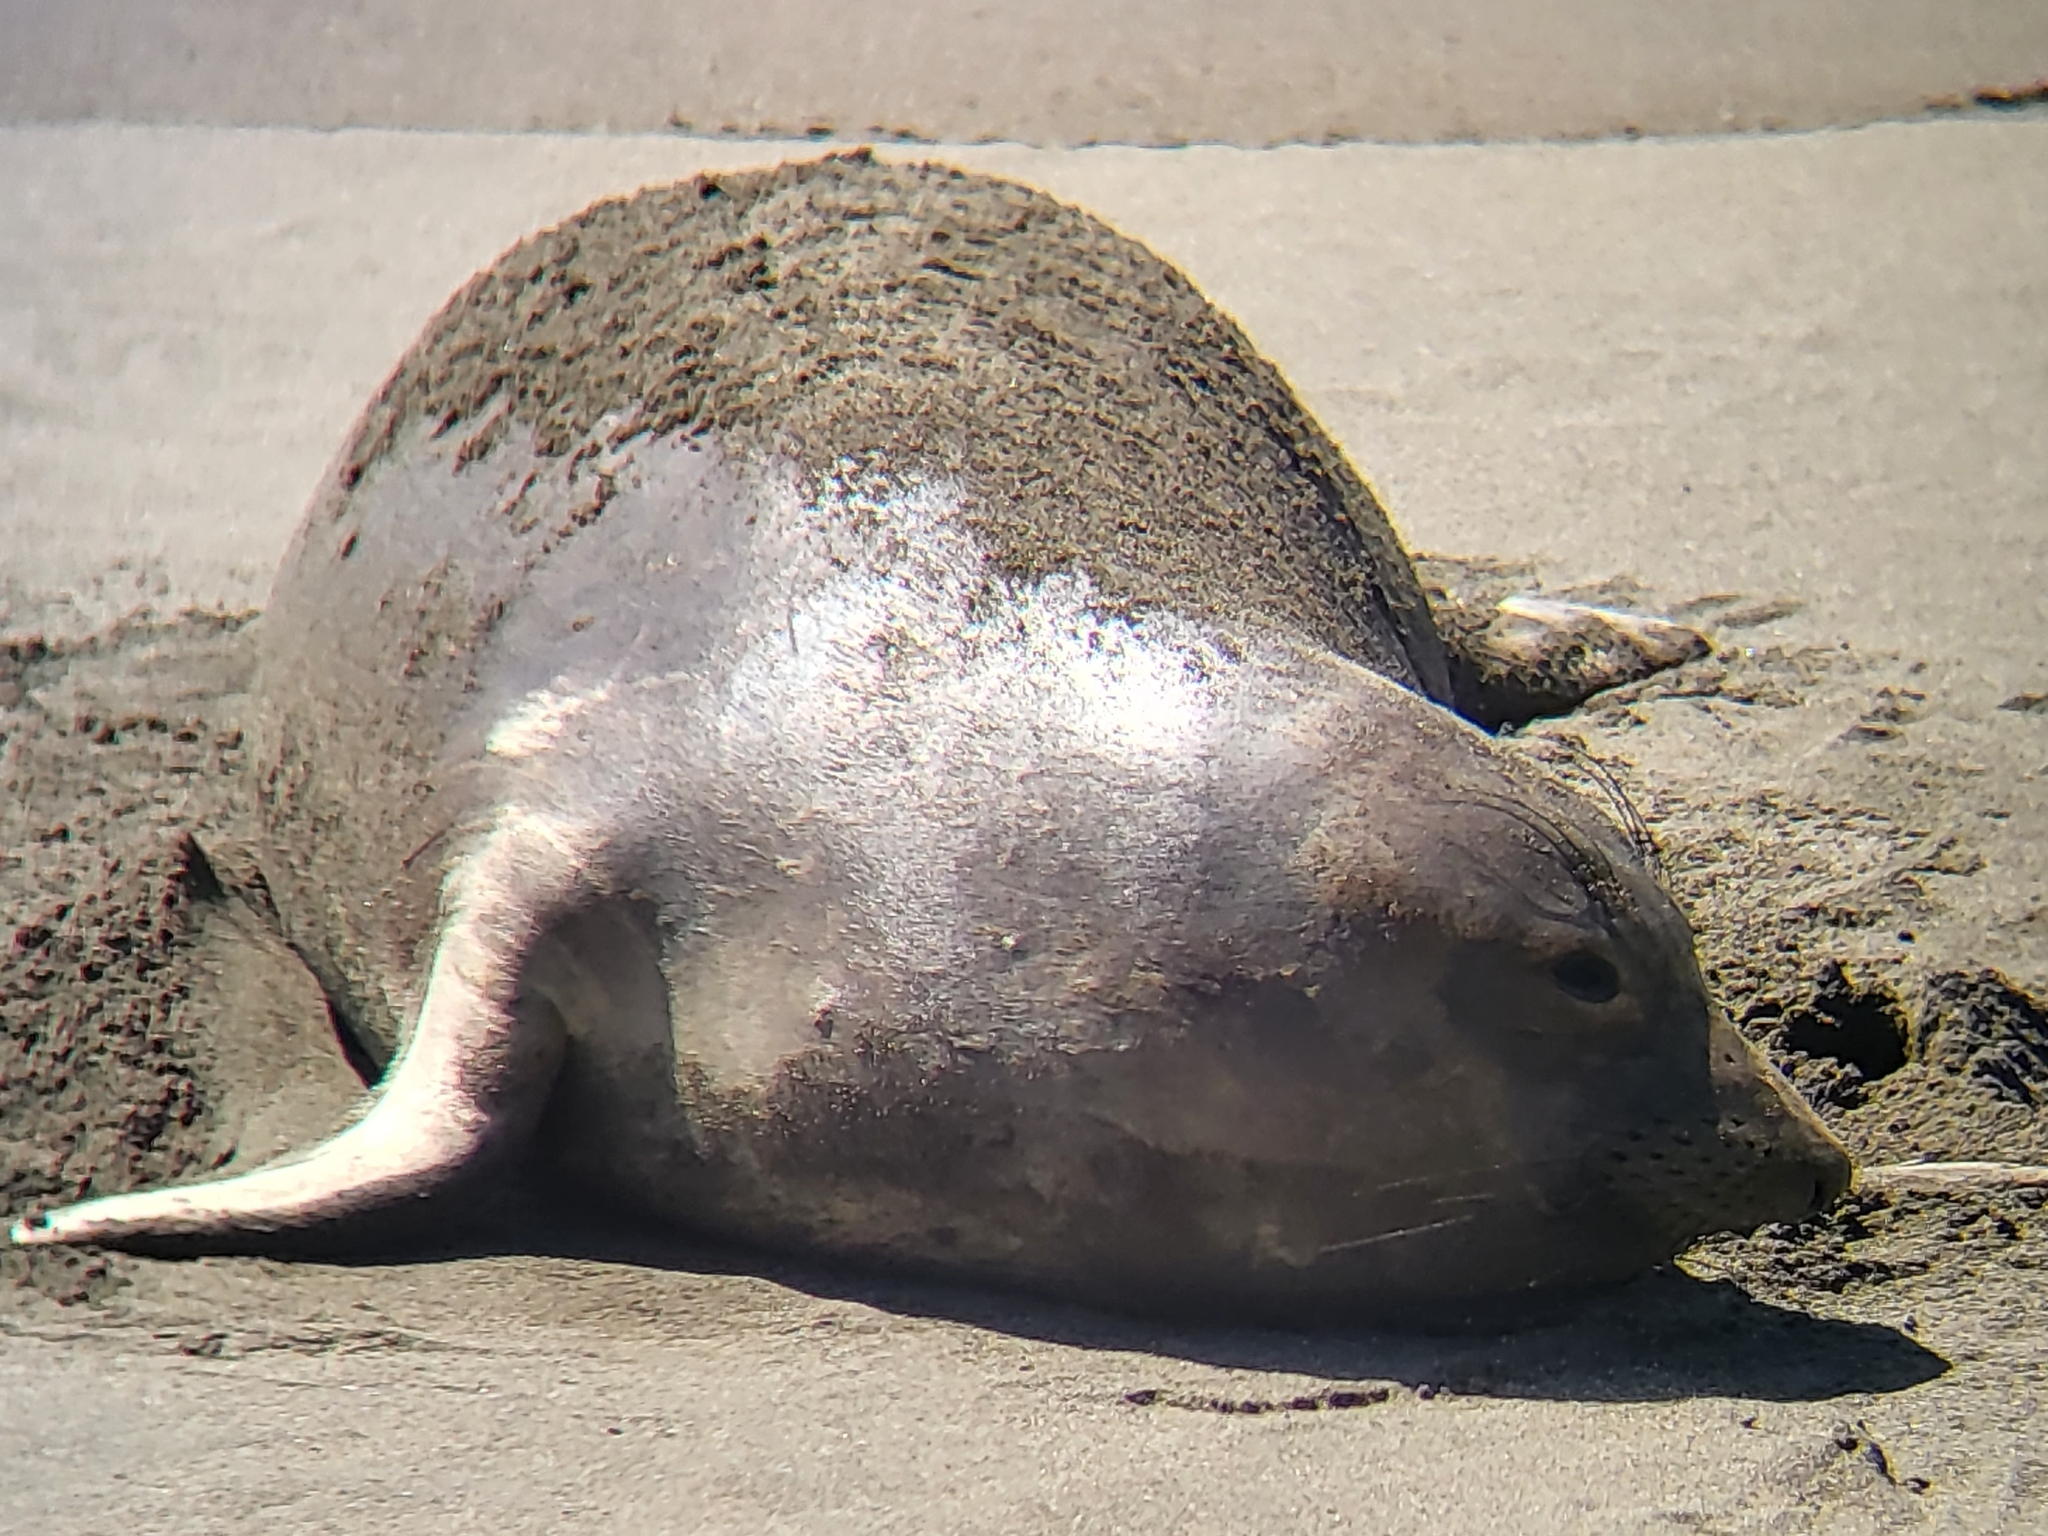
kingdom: Animalia
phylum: Chordata
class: Mammalia
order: Carnivora
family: Phocidae
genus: Mirounga
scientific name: Mirounga angustirostris
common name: Northern elephant seal
